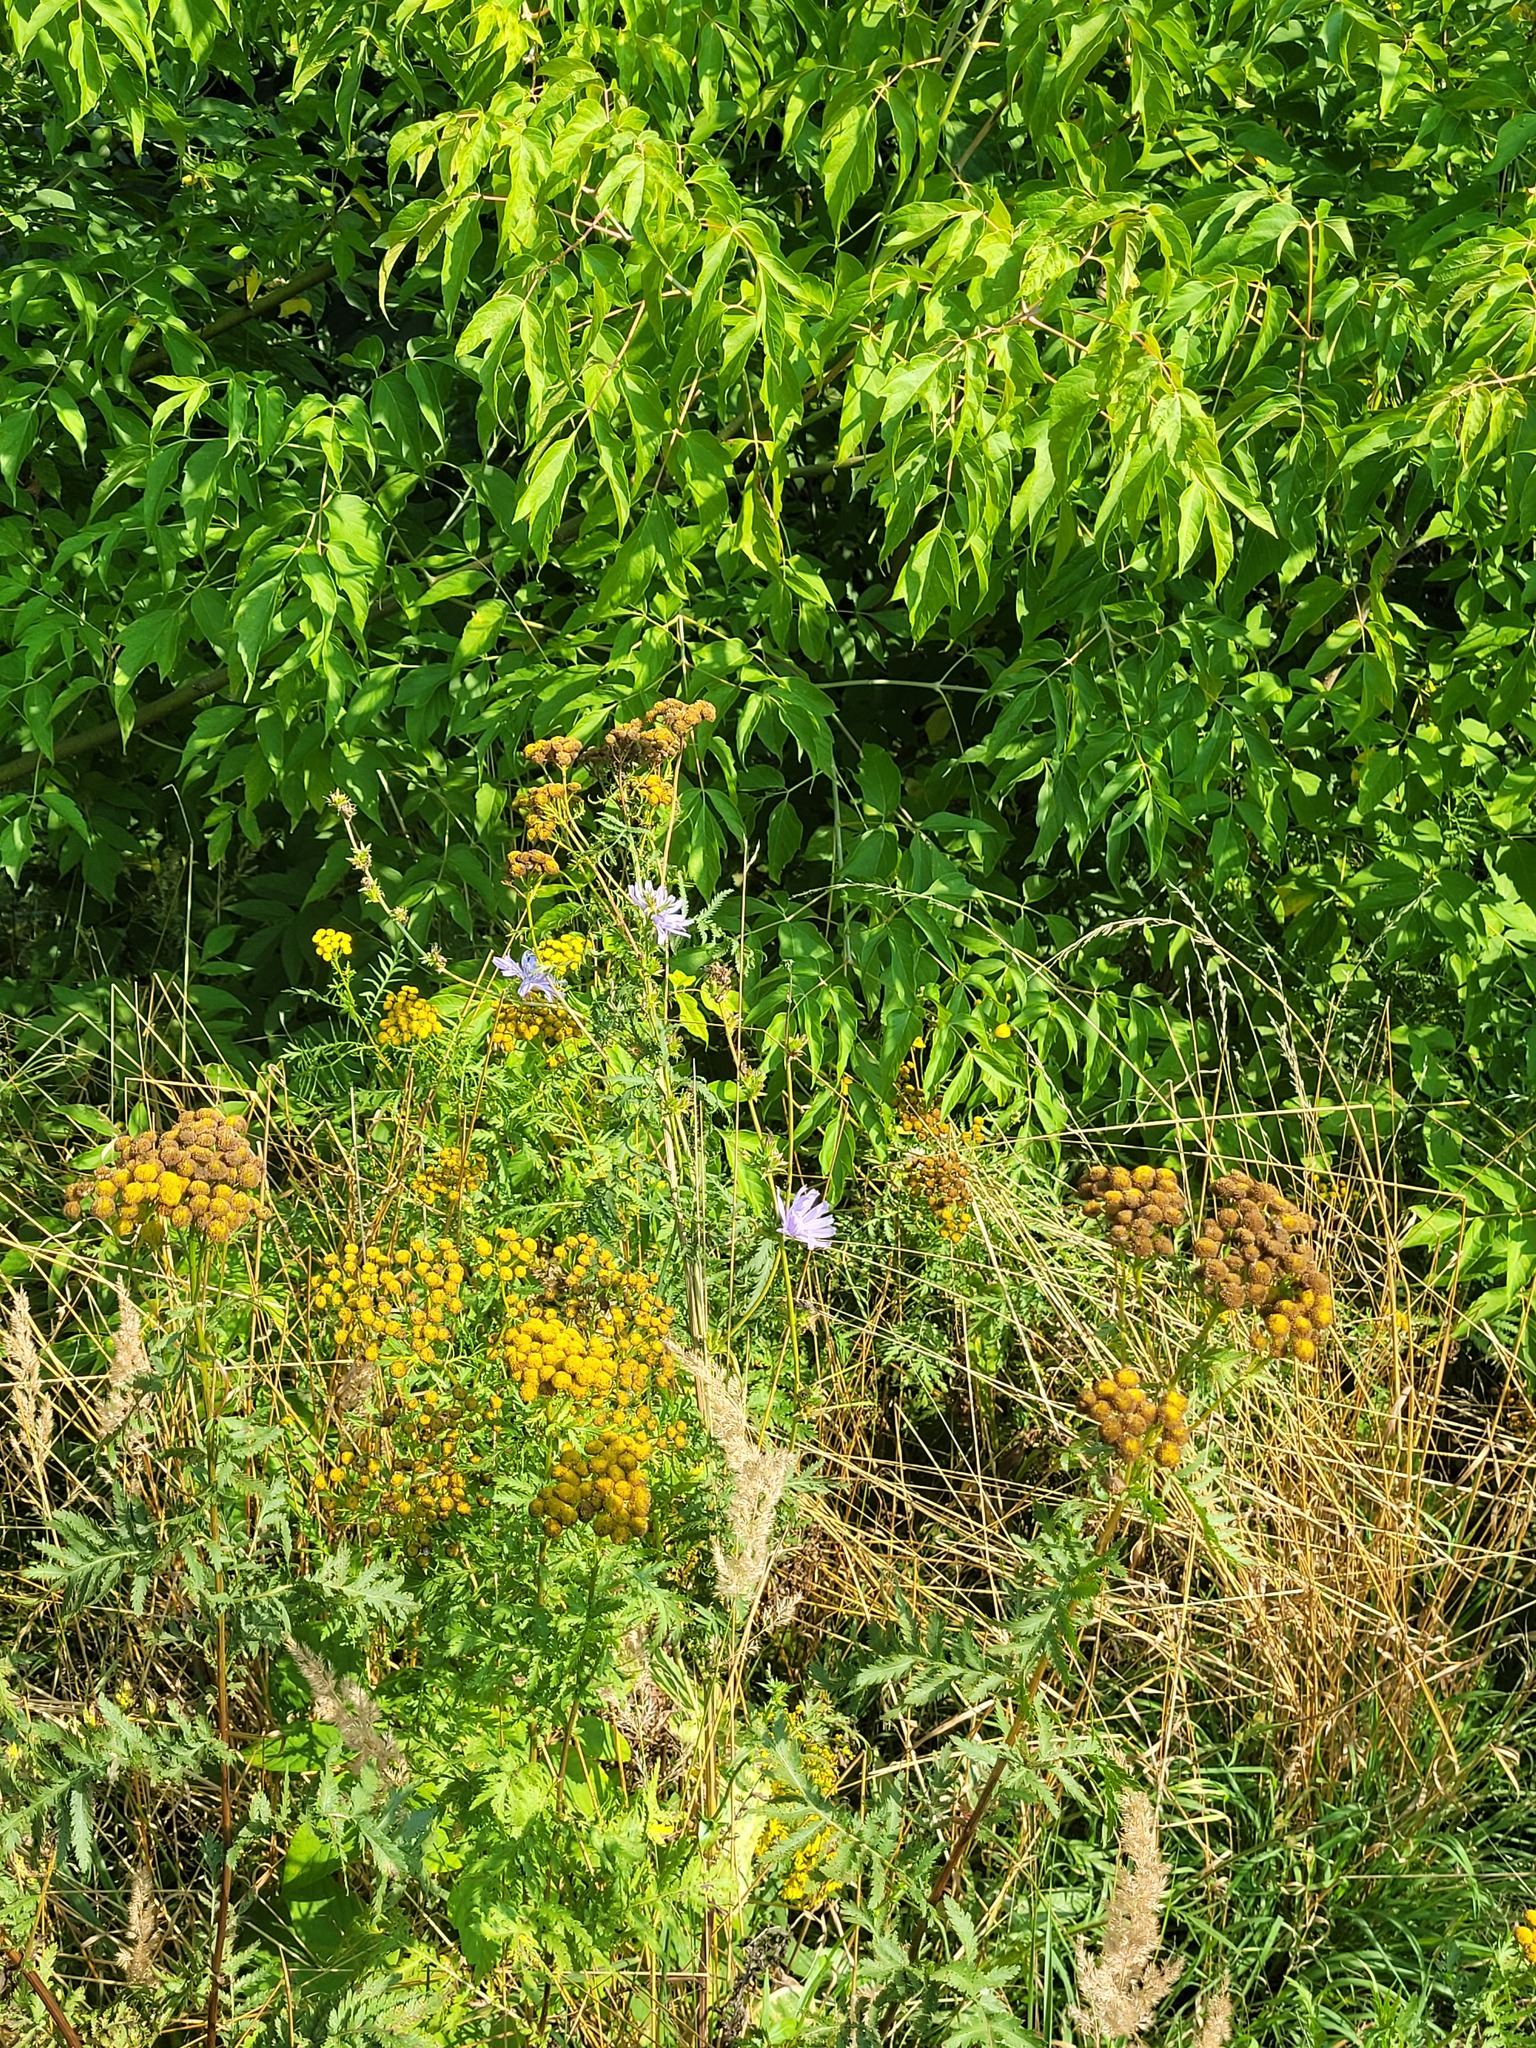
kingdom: Plantae
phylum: Tracheophyta
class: Magnoliopsida
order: Asterales
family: Asteraceae
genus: Cichorium
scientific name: Cichorium intybus
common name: Chicory
